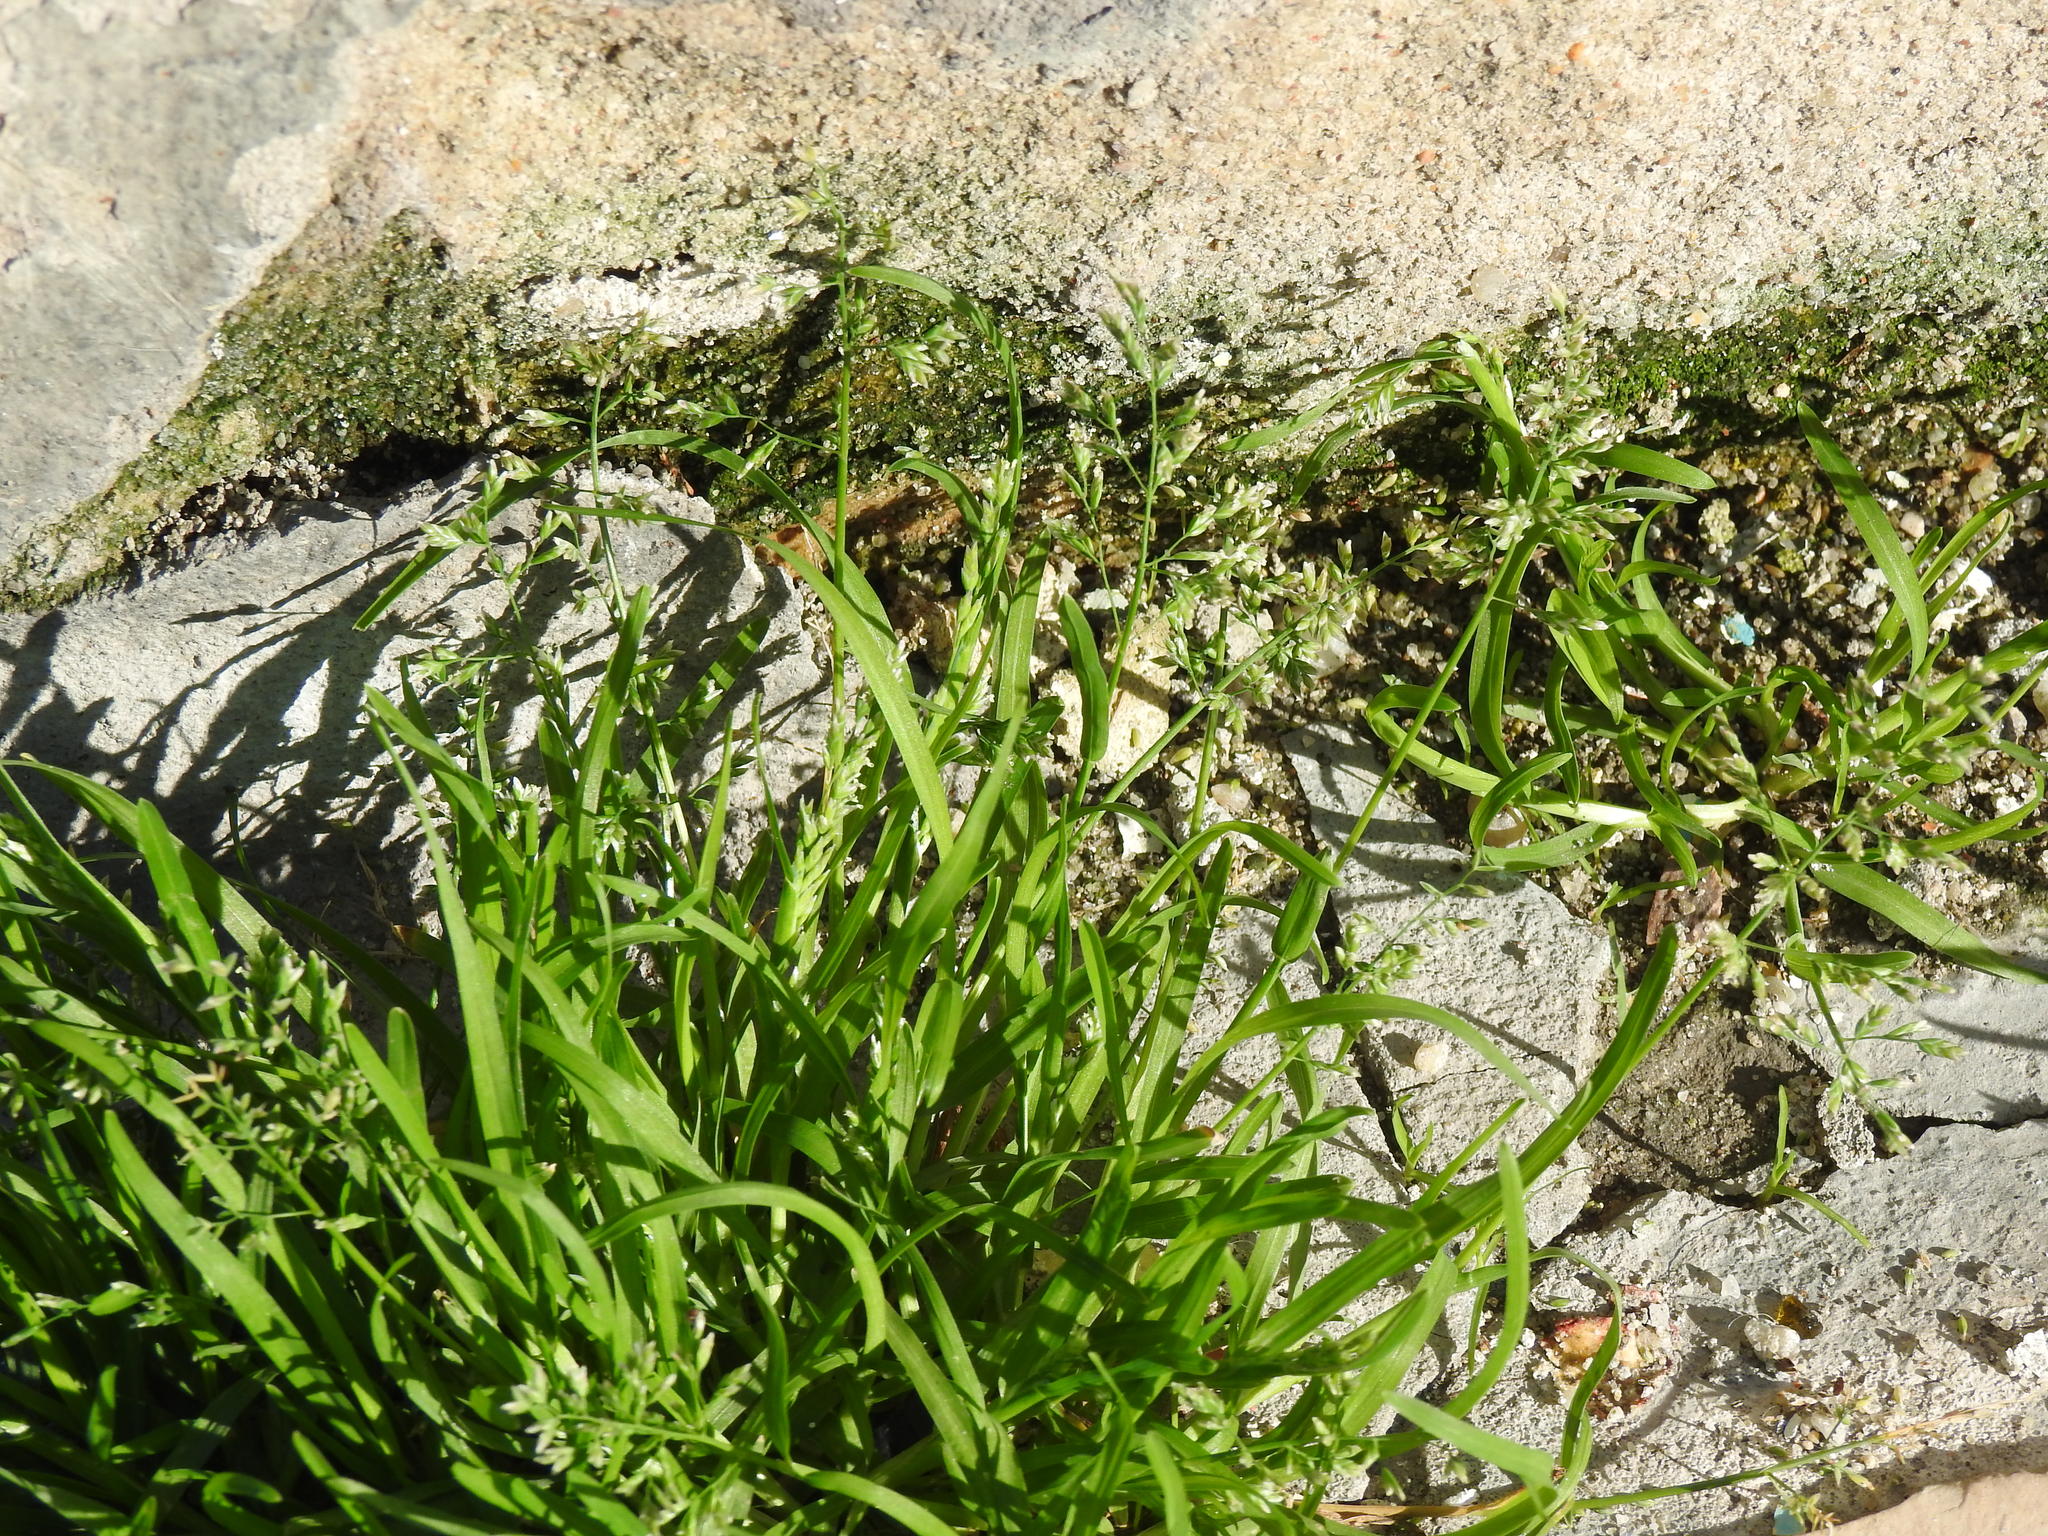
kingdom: Plantae
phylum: Tracheophyta
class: Liliopsida
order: Poales
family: Poaceae
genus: Poa
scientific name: Poa annua
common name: Annual bluegrass
